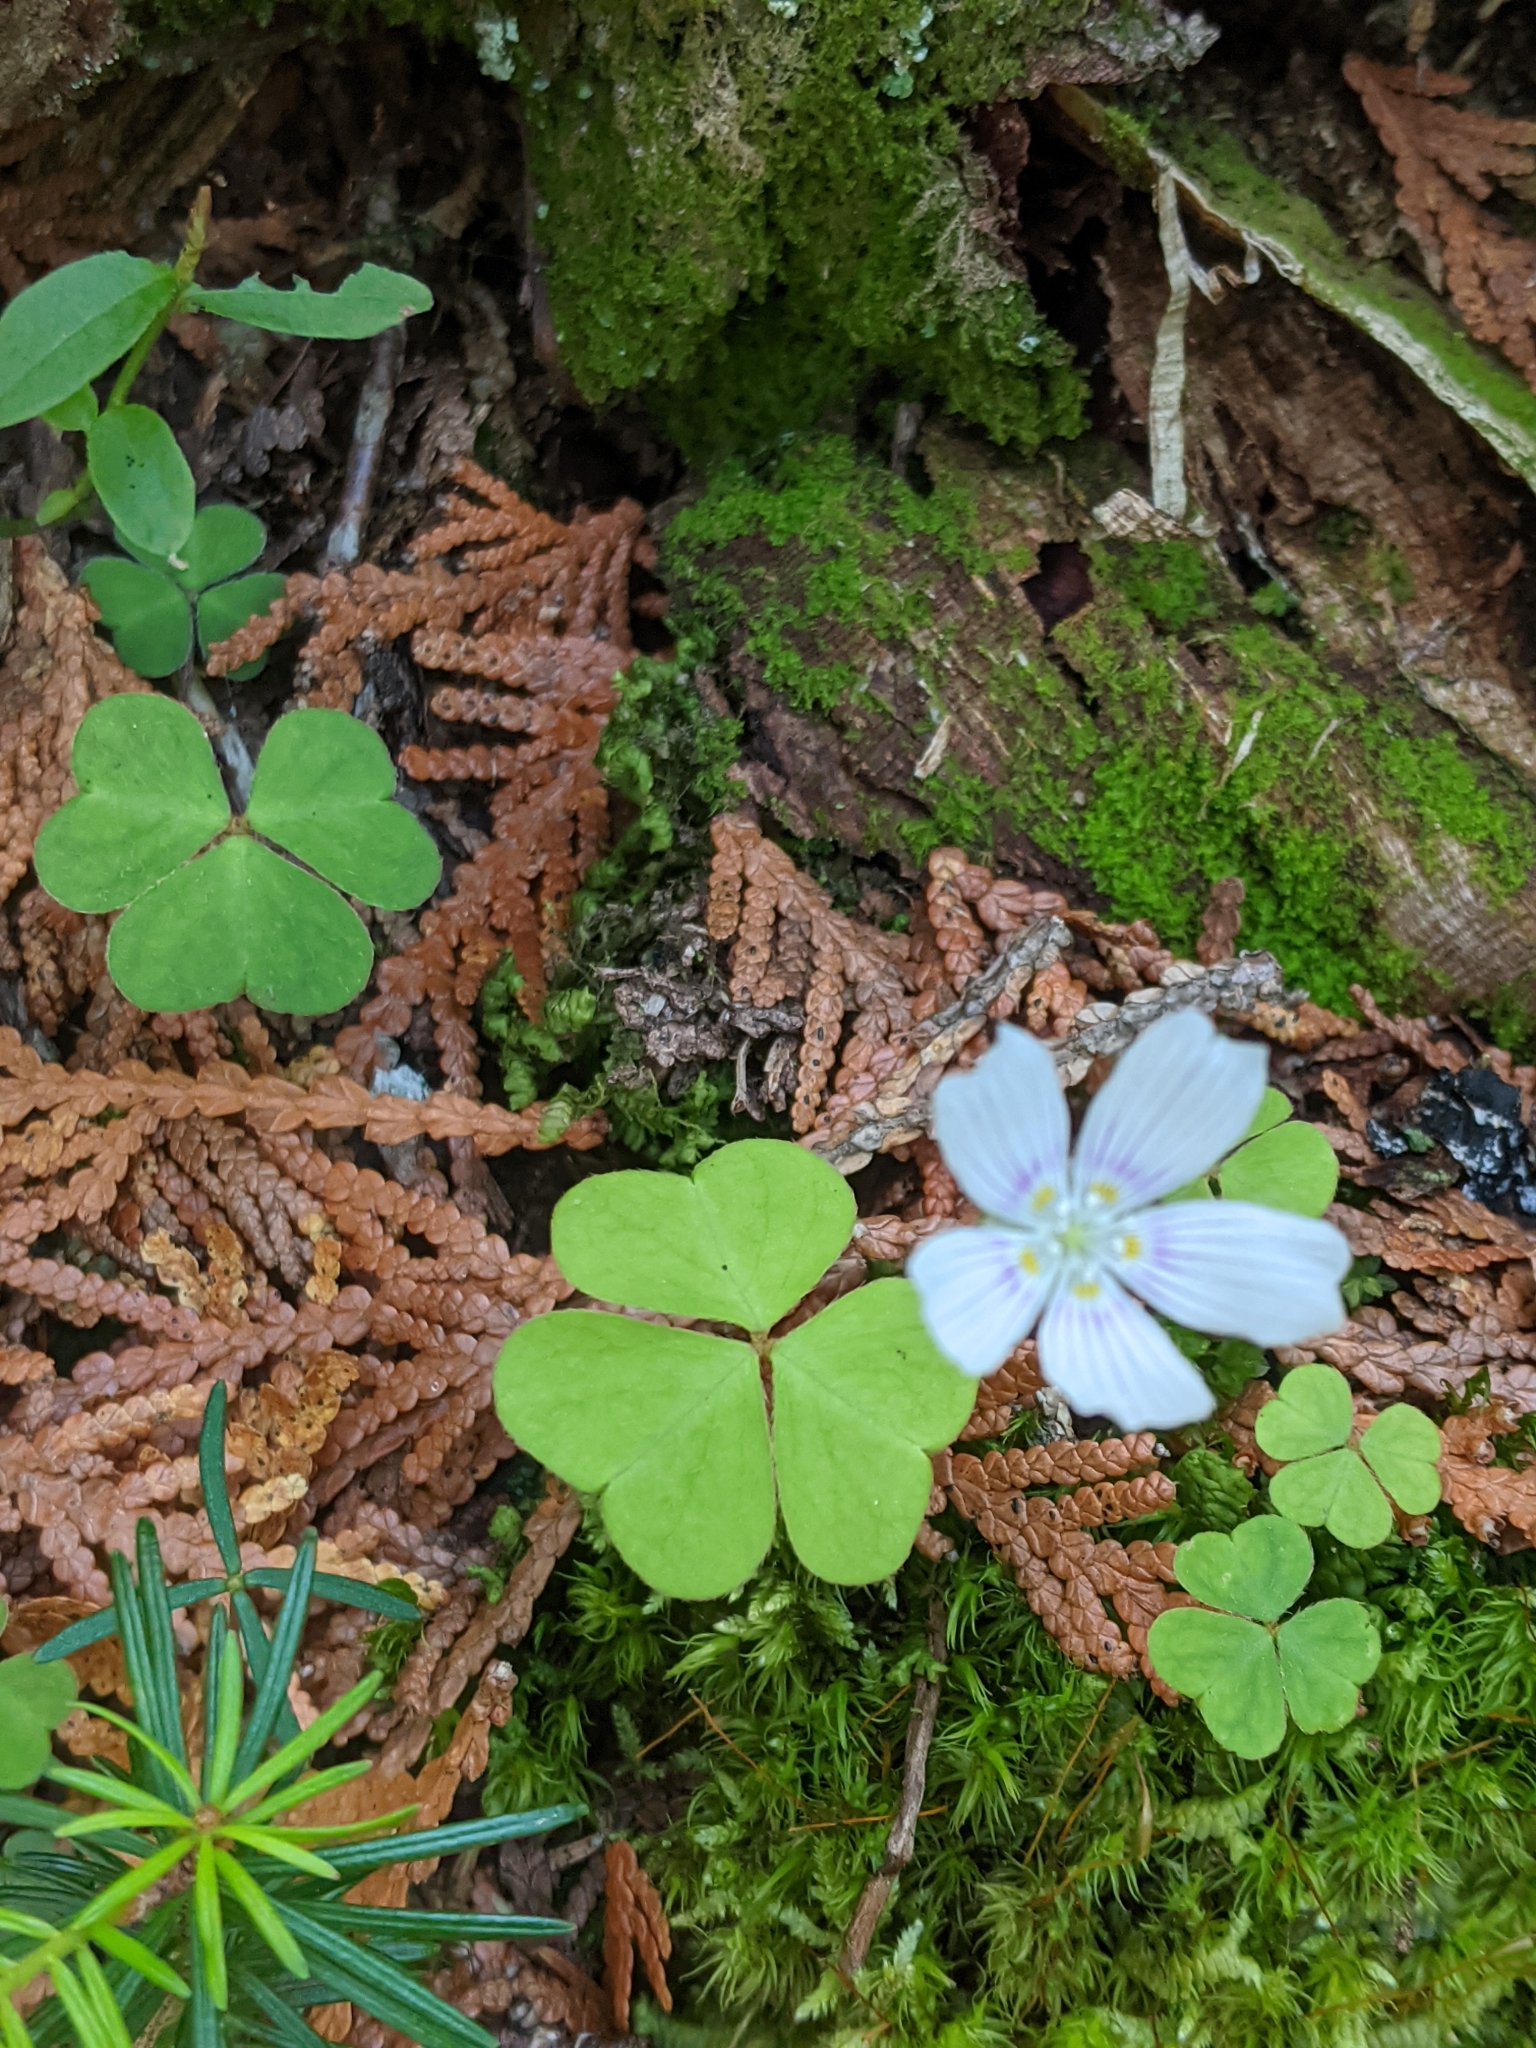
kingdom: Plantae
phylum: Tracheophyta
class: Magnoliopsida
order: Oxalidales
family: Oxalidaceae
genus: Oxalis
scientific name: Oxalis montana
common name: American wood-sorrel
